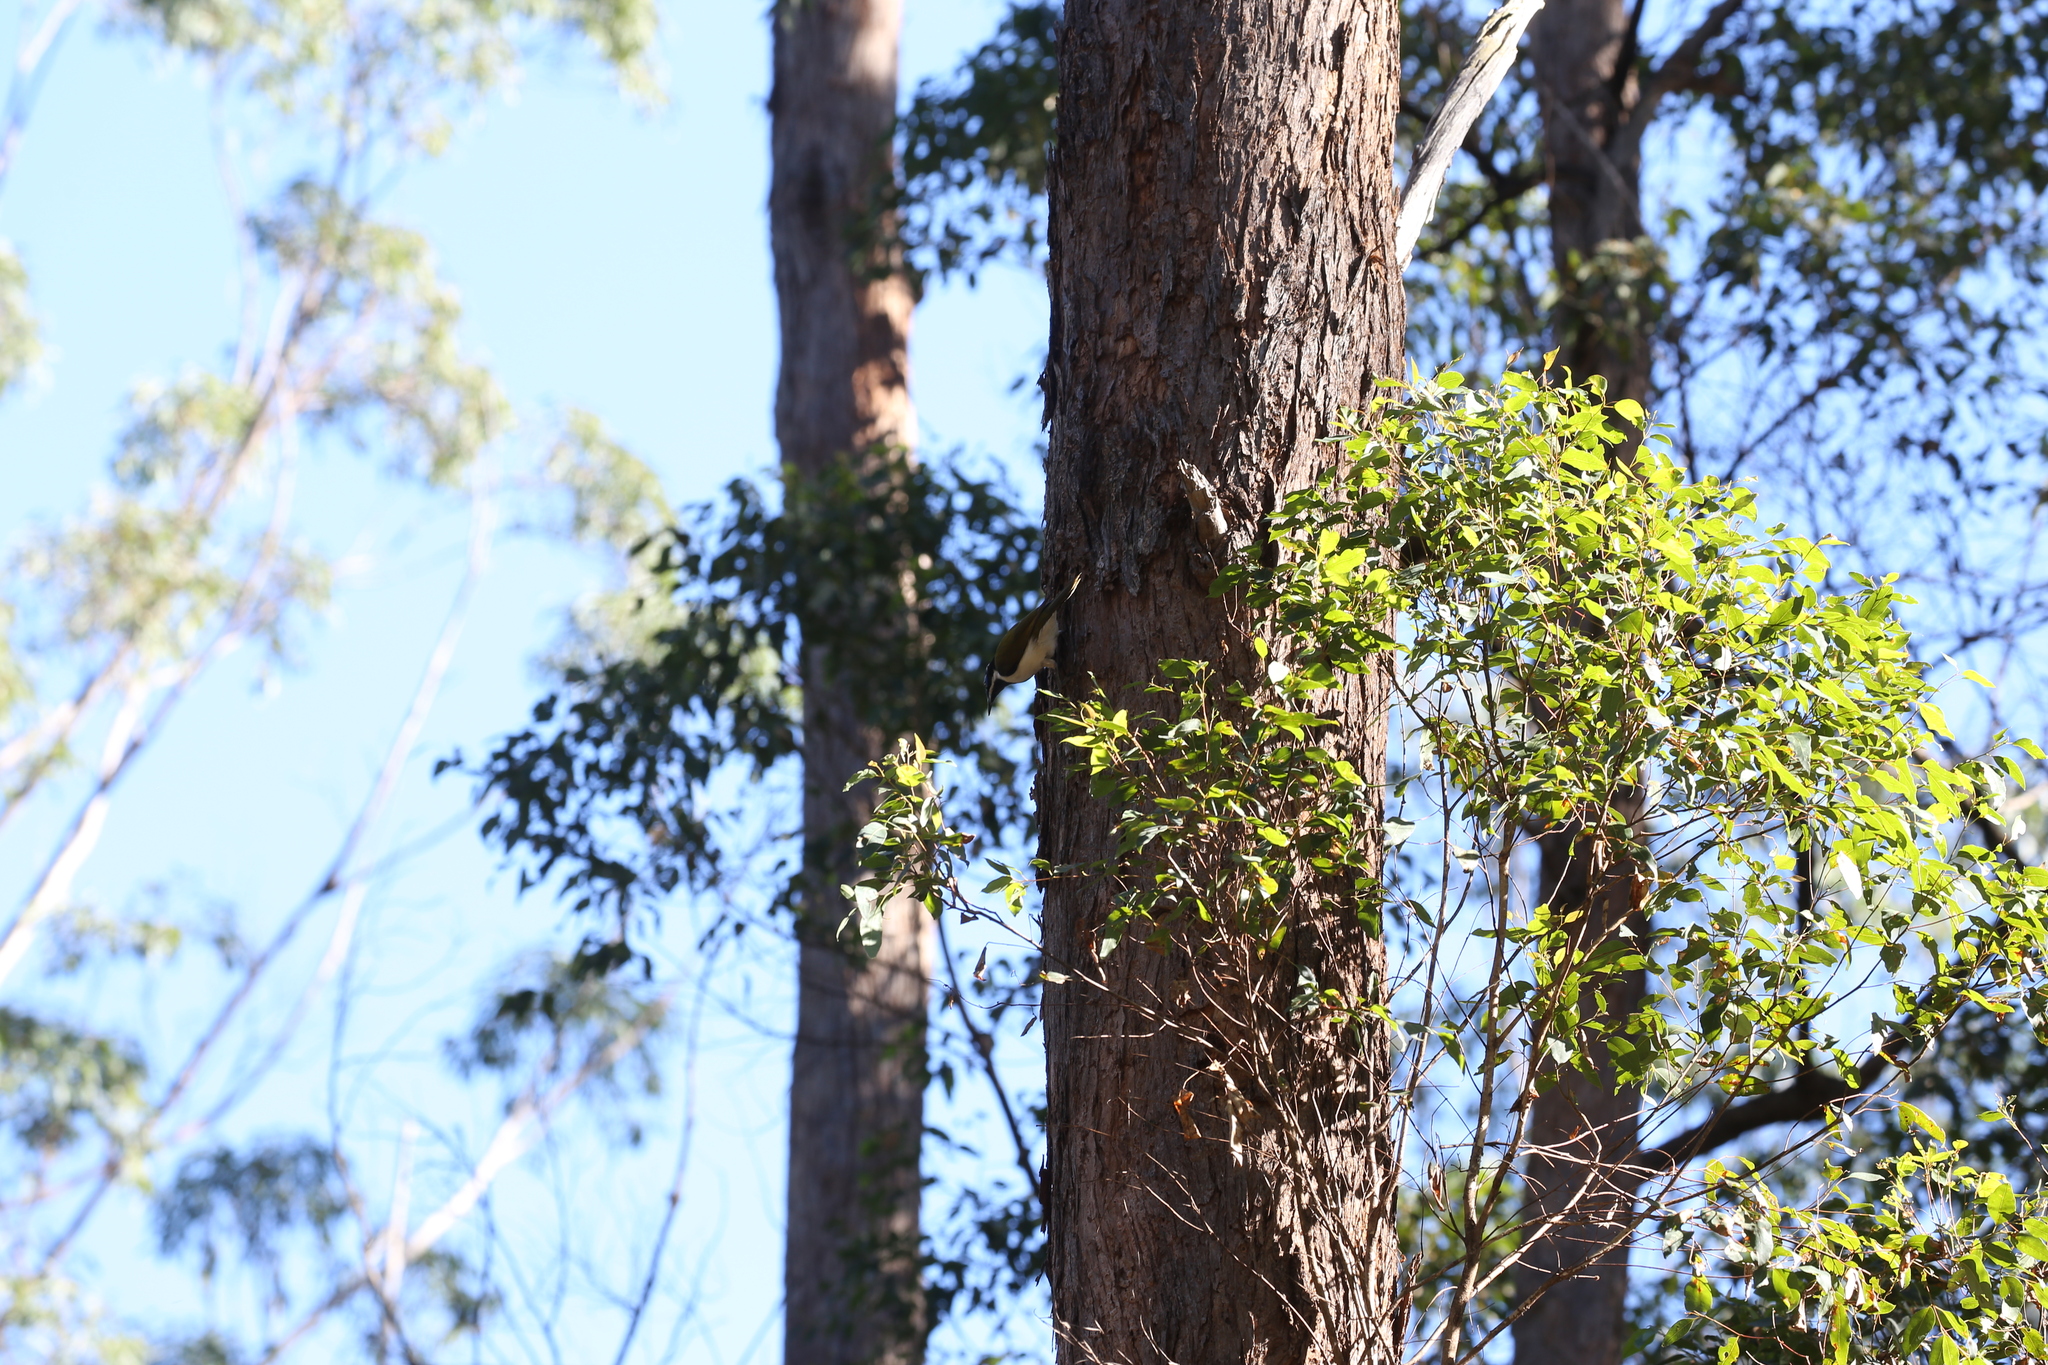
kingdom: Animalia
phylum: Chordata
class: Aves
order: Passeriformes
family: Meliphagidae
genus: Entomyzon
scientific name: Entomyzon cyanotis
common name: Blue-faced honeyeater
